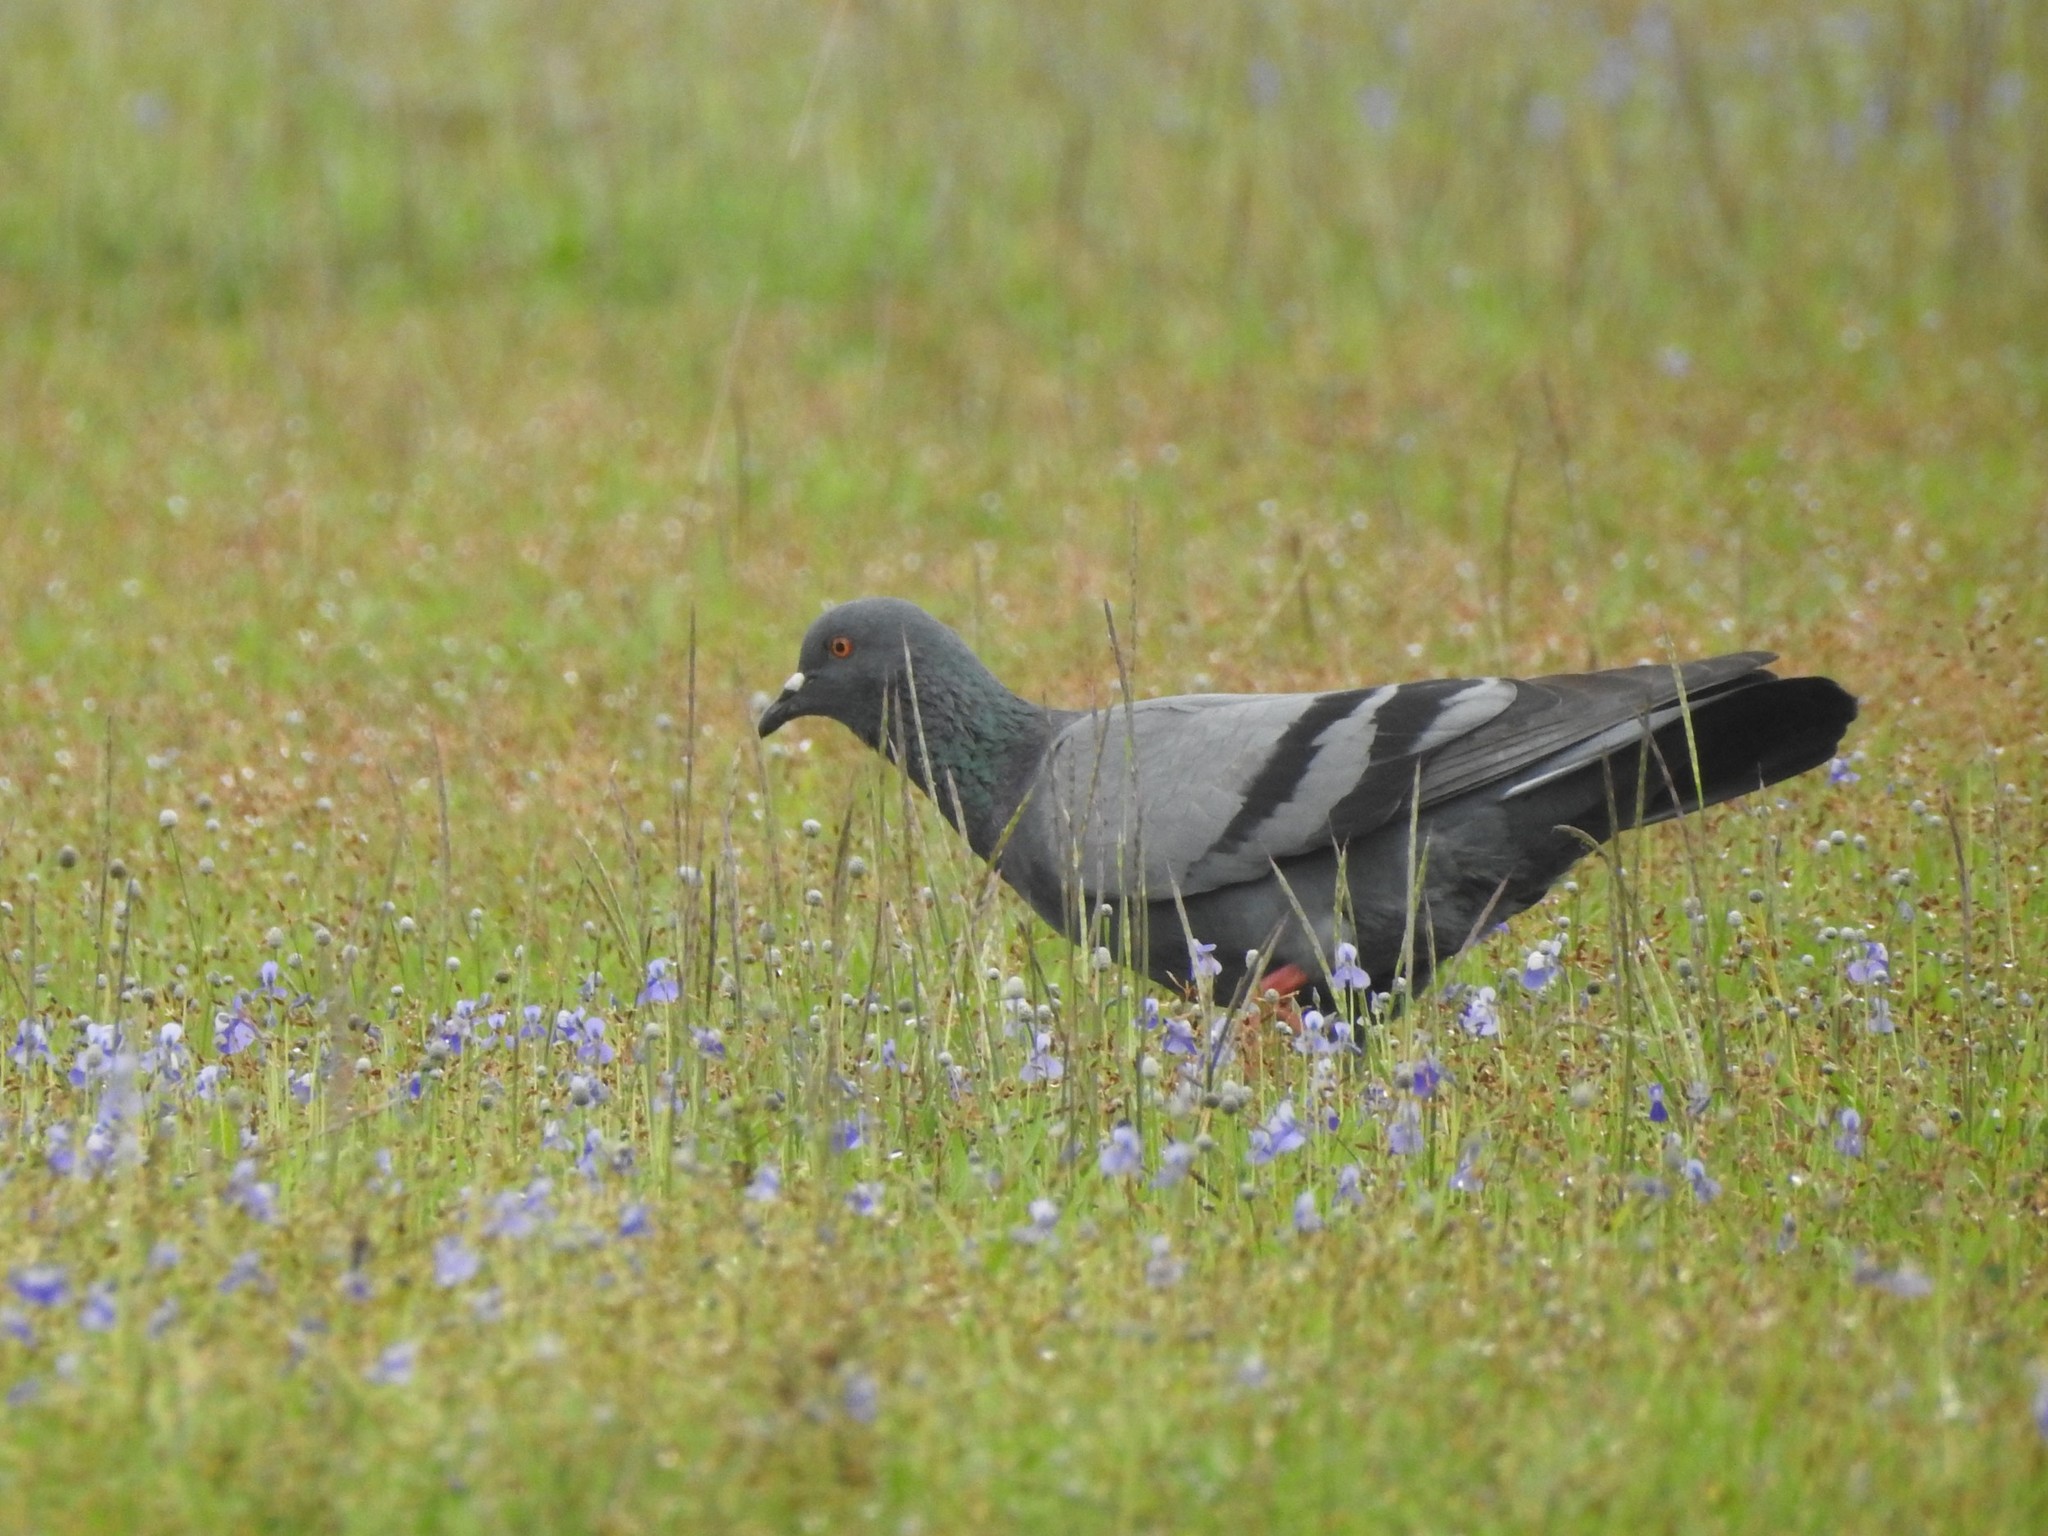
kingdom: Animalia
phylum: Chordata
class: Aves
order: Columbiformes
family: Columbidae
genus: Columba
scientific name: Columba livia
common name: Rock pigeon
